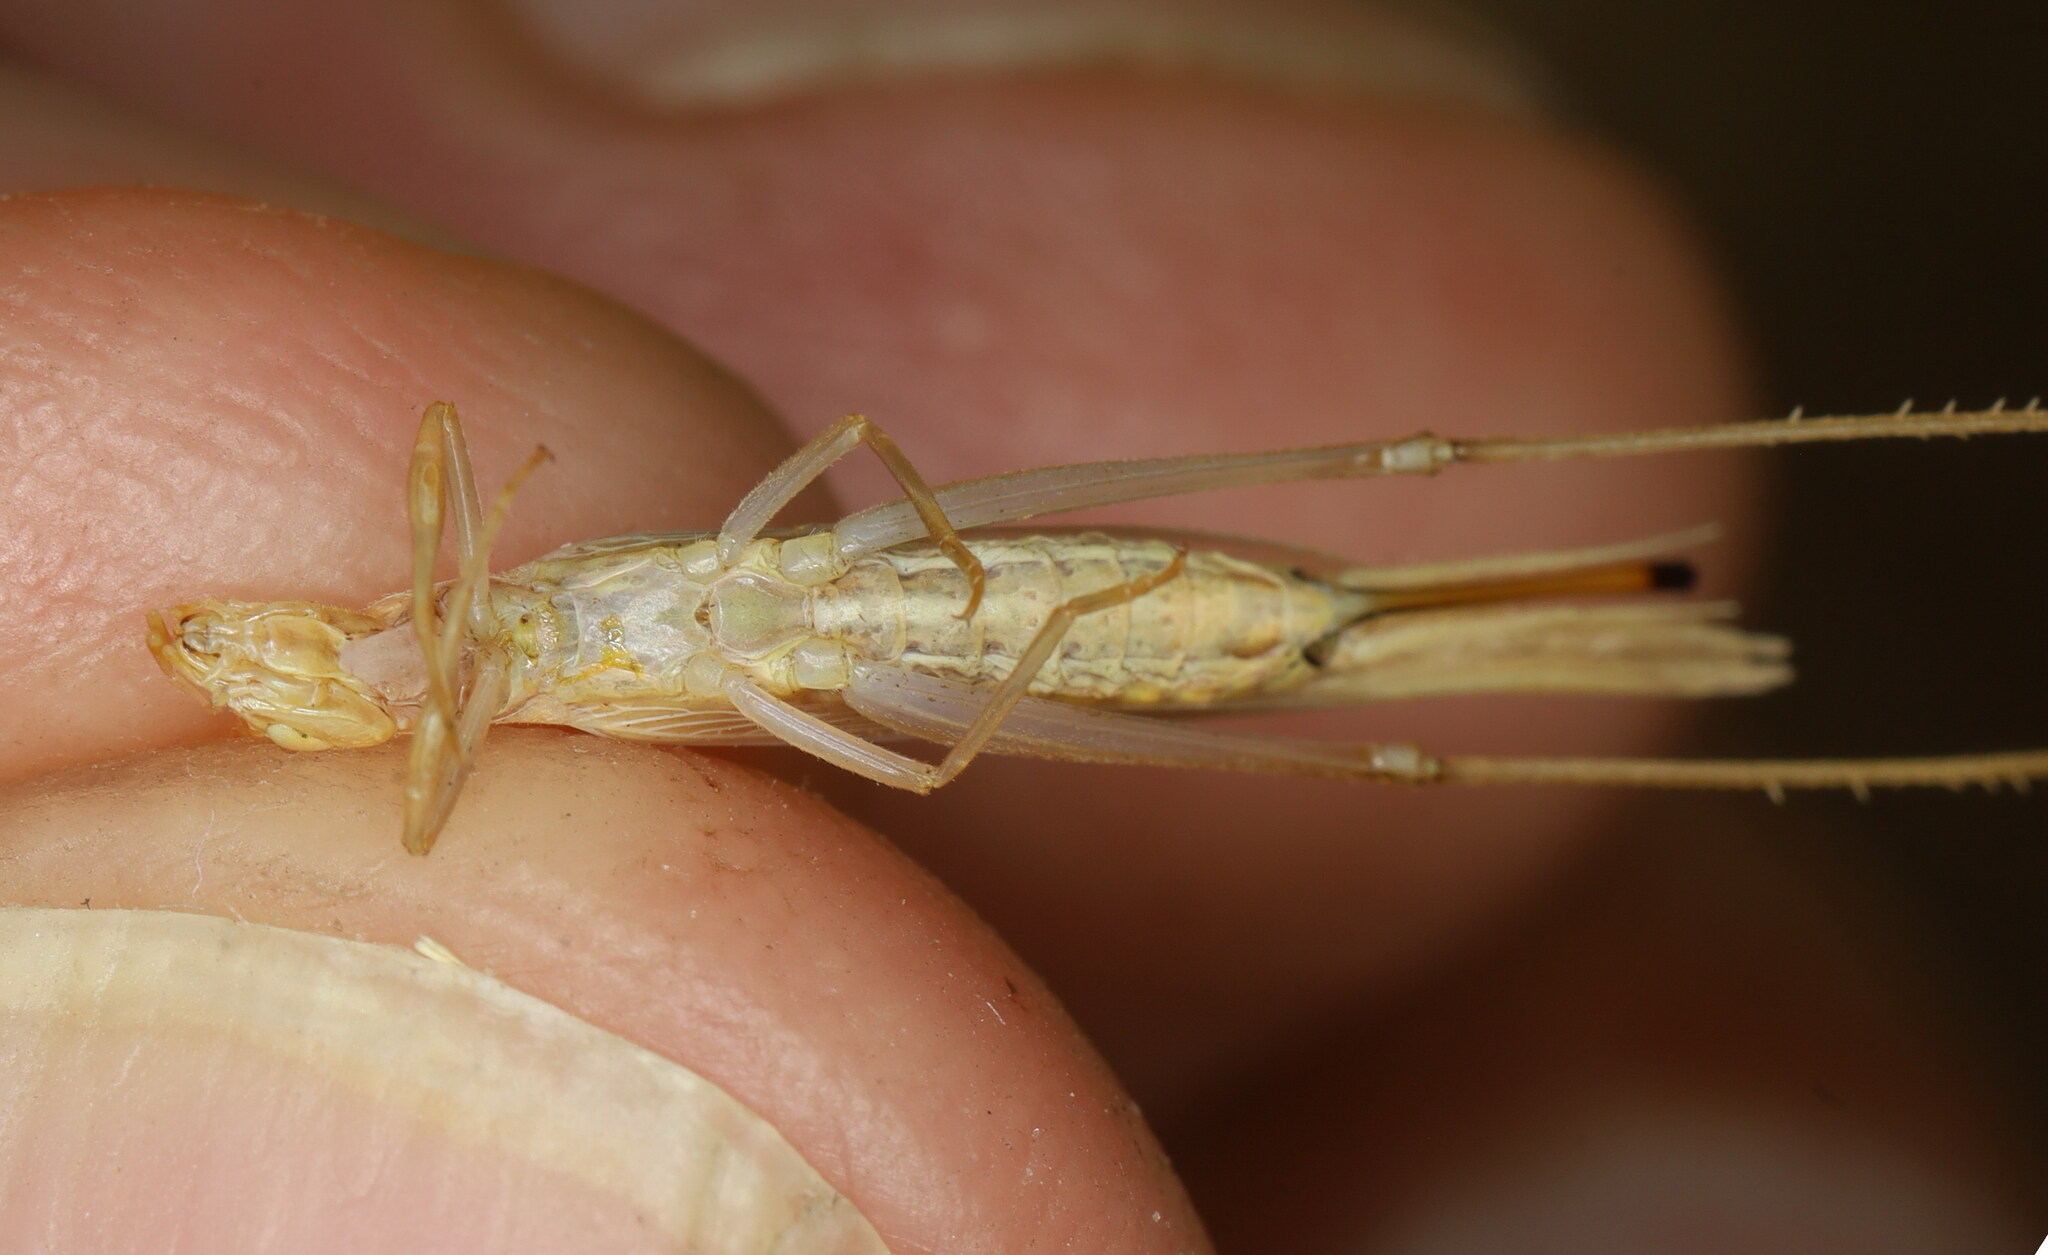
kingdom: Animalia
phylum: Arthropoda
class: Insecta
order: Orthoptera
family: Gryllidae
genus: Oecanthus
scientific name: Oecanthus dulcisonans
